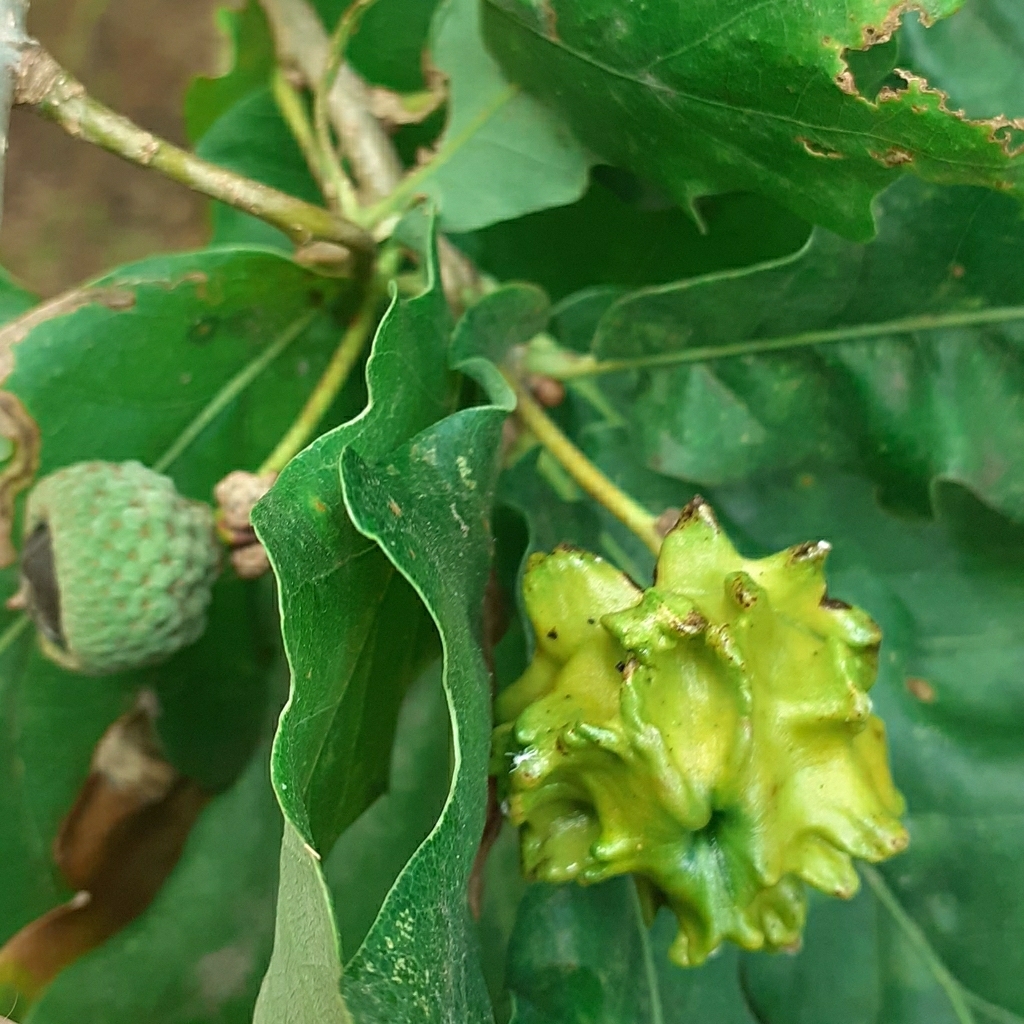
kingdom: Animalia
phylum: Arthropoda
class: Insecta
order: Hymenoptera
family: Cynipidae
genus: Andricus
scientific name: Andricus quercuscalicis
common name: Knopper gall
